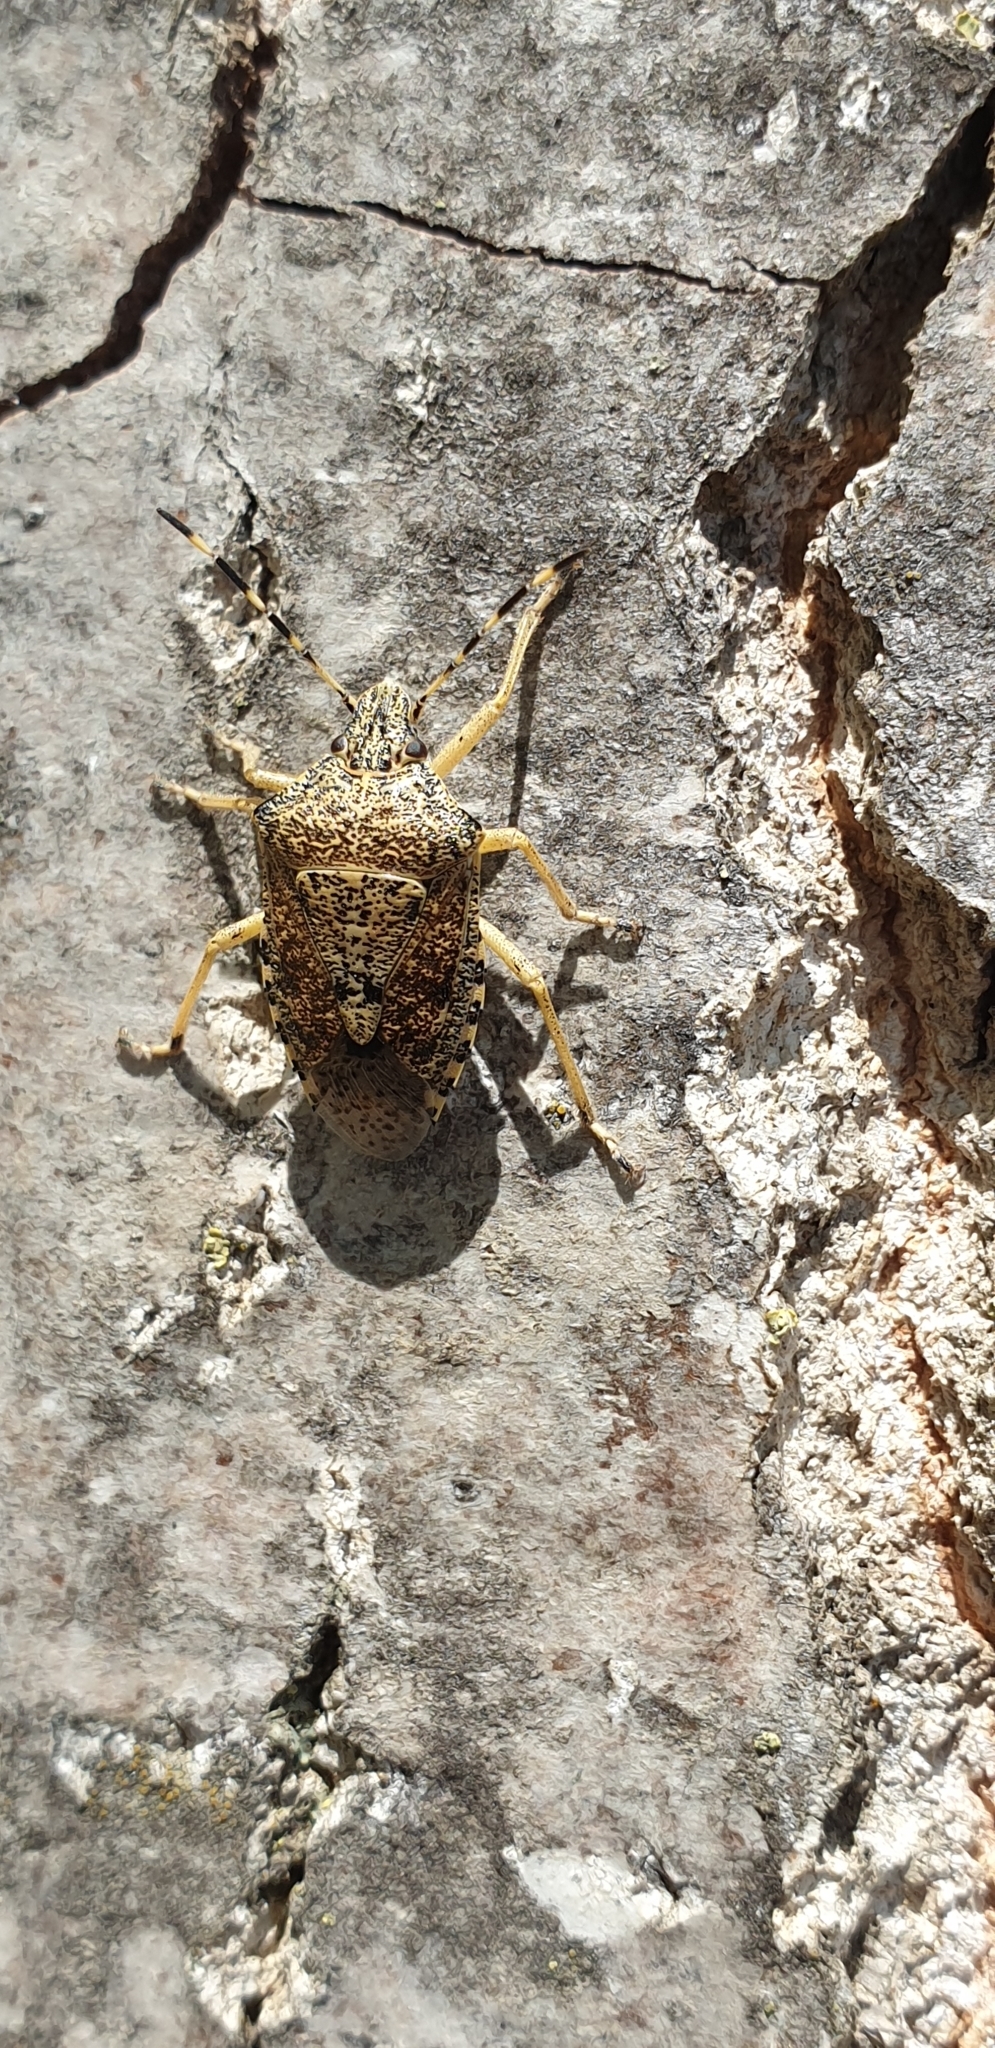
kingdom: Animalia
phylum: Arthropoda
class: Insecta
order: Hemiptera
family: Pentatomidae
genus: Rhaphigaster
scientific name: Rhaphigaster nebulosa
